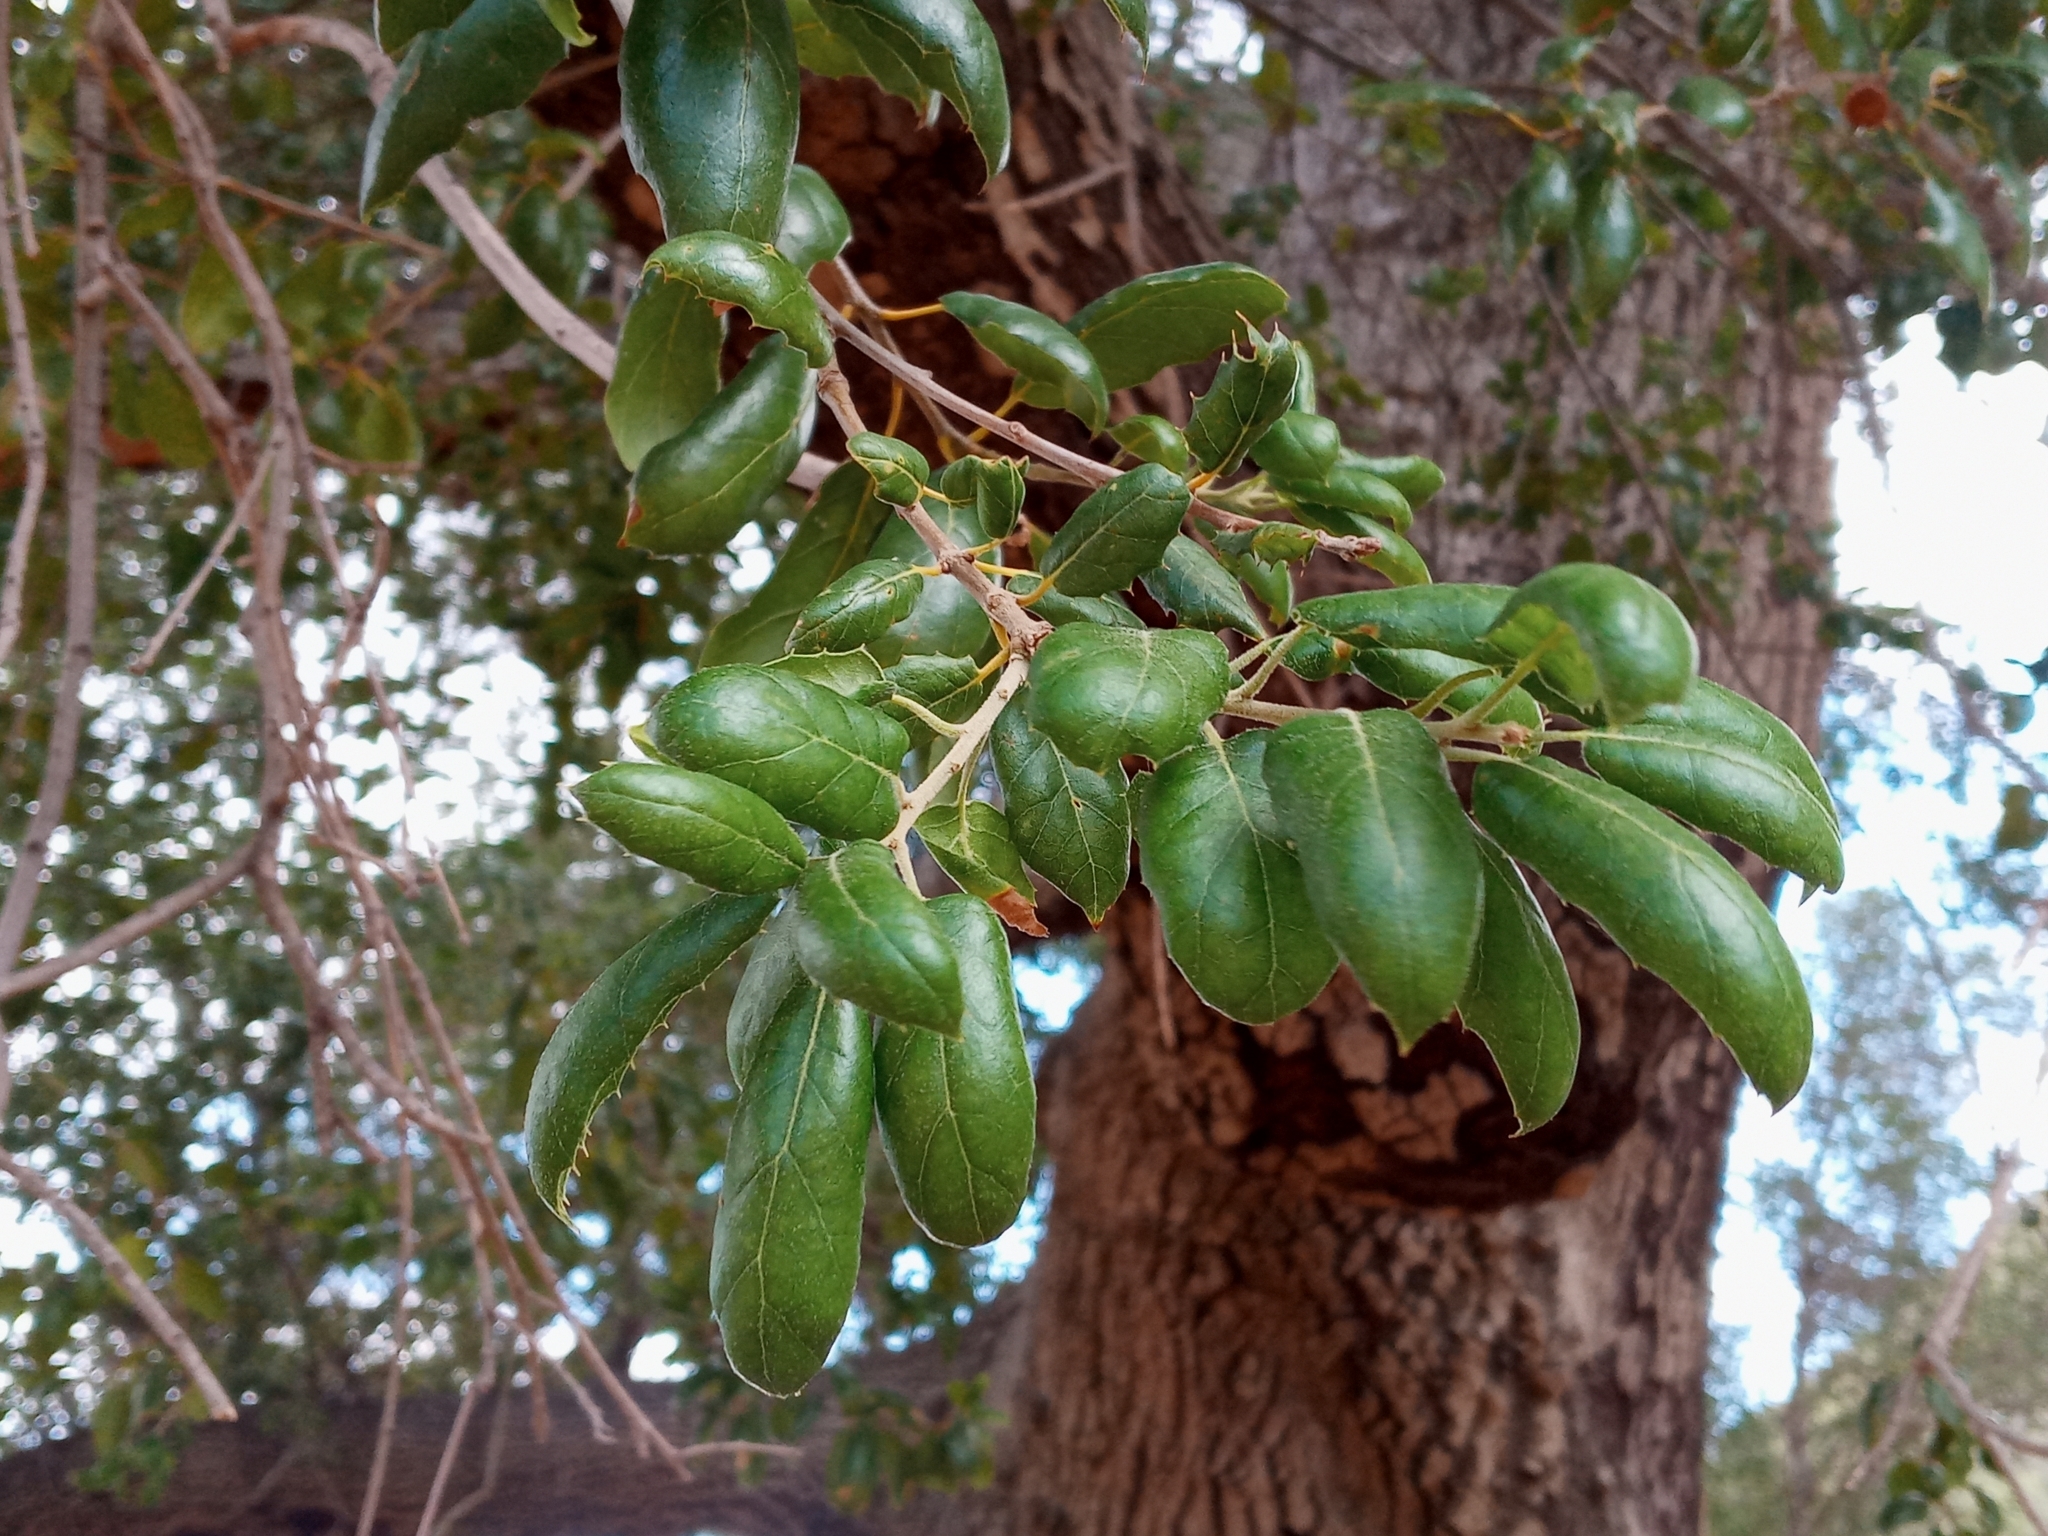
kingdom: Plantae
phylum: Tracheophyta
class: Magnoliopsida
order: Fagales
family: Fagaceae
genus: Quercus
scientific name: Quercus agrifolia
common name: California live oak
